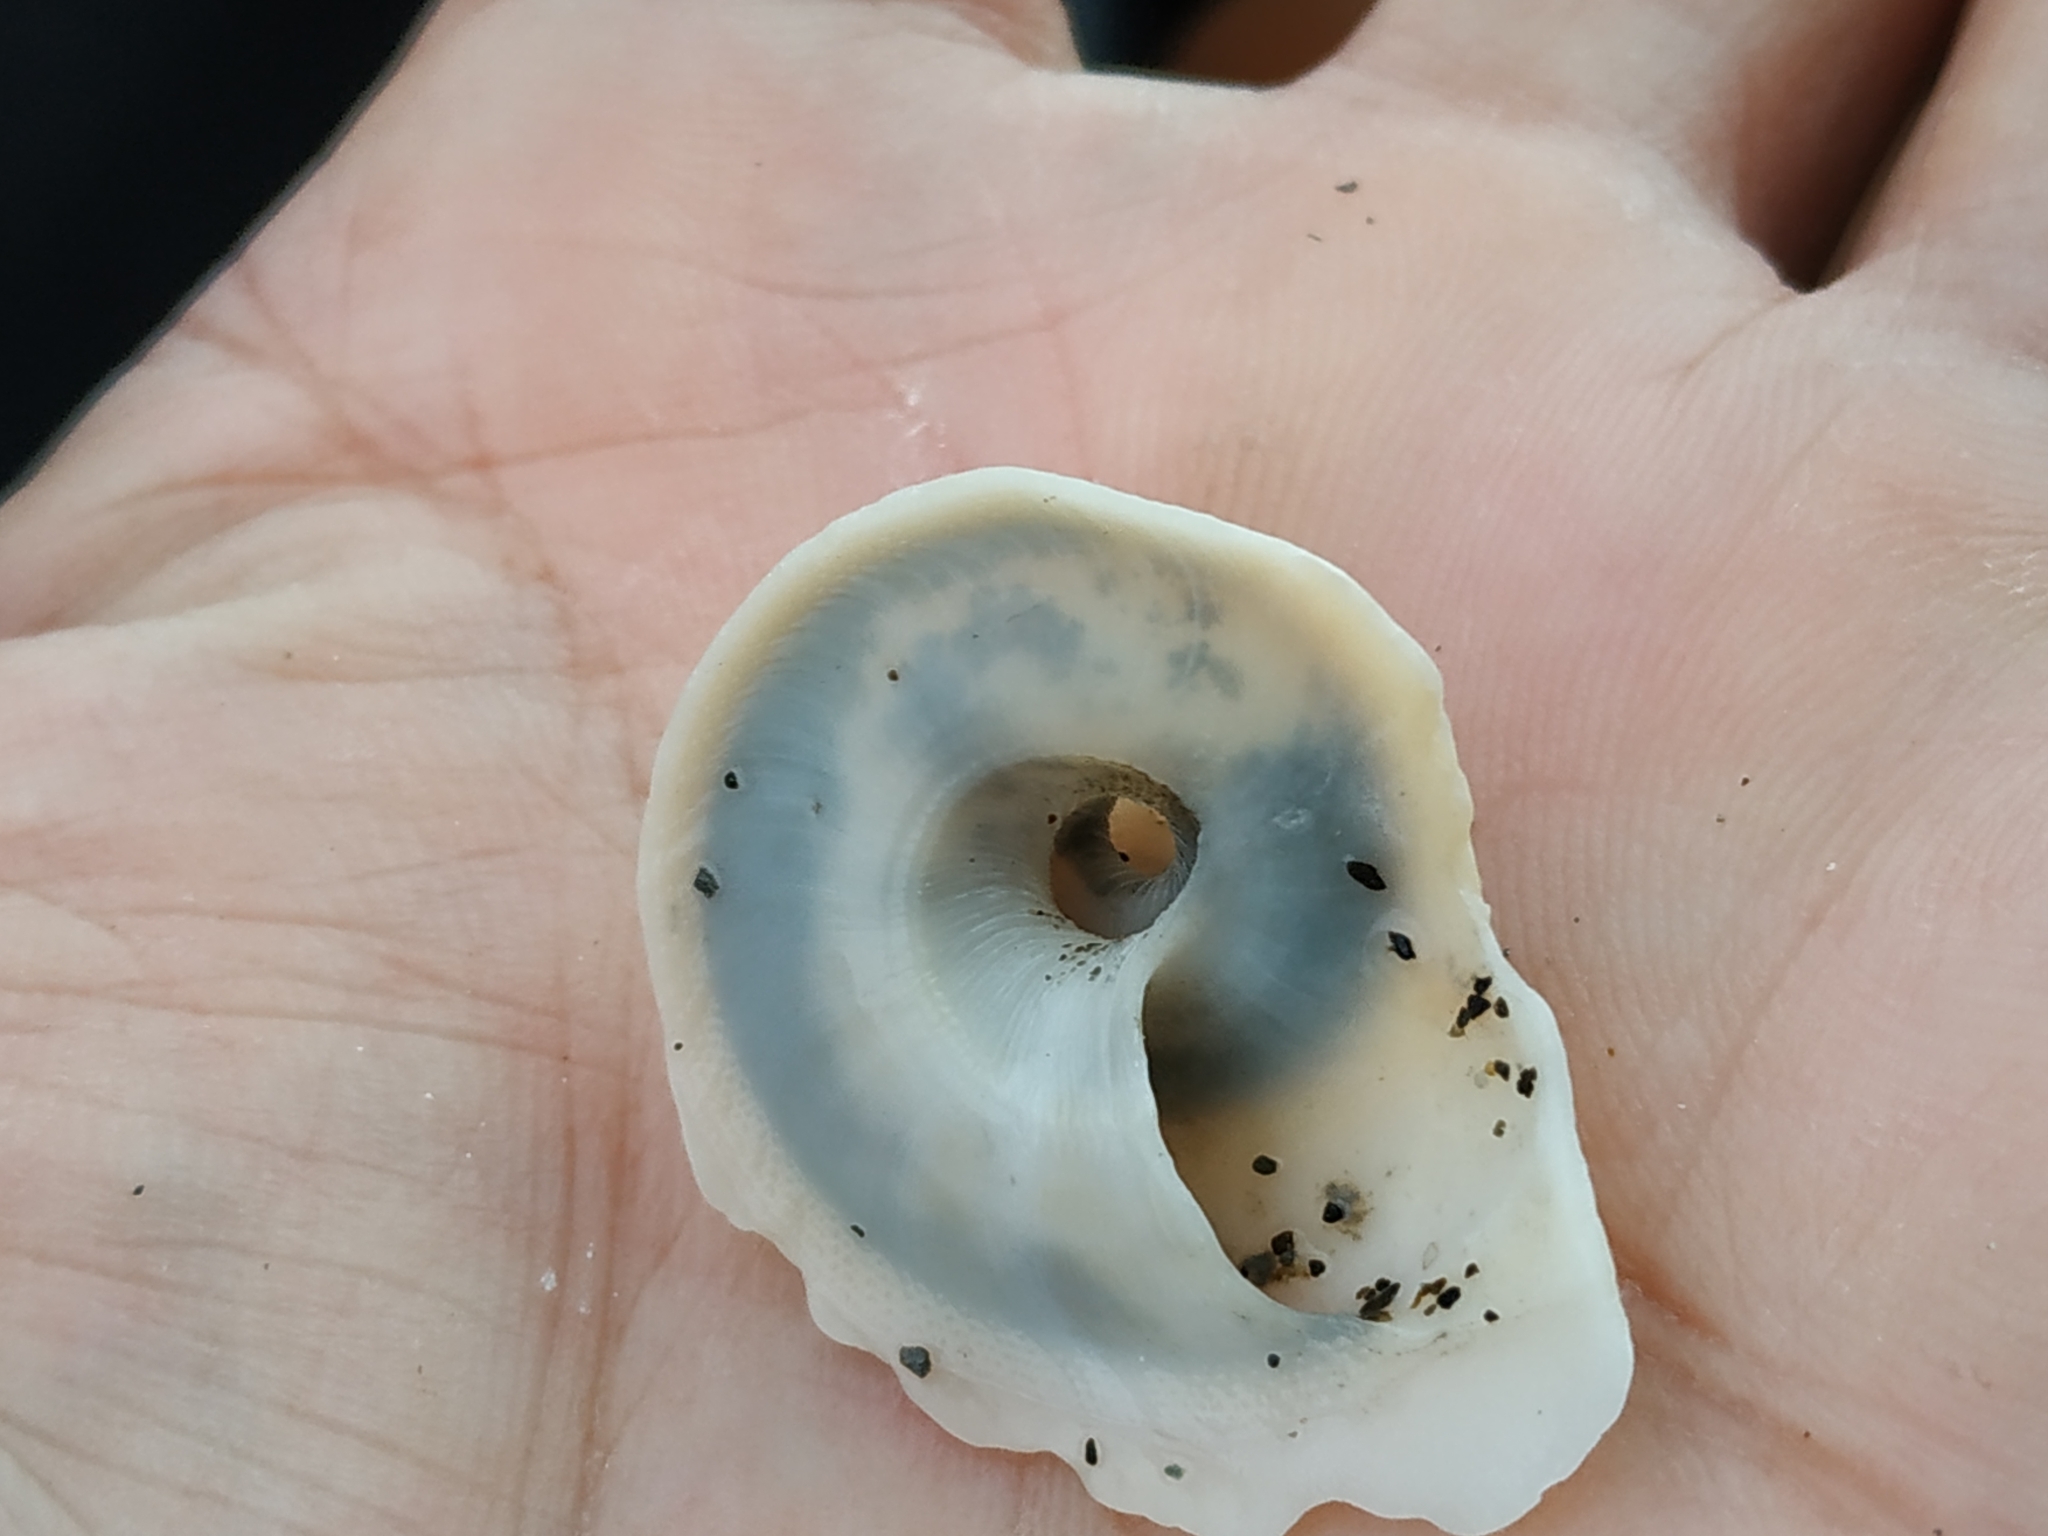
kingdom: Animalia
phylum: Mollusca
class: Gastropoda
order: Littorinimorpha
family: Xenophoridae
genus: Onustus
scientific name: Onustus exutus
